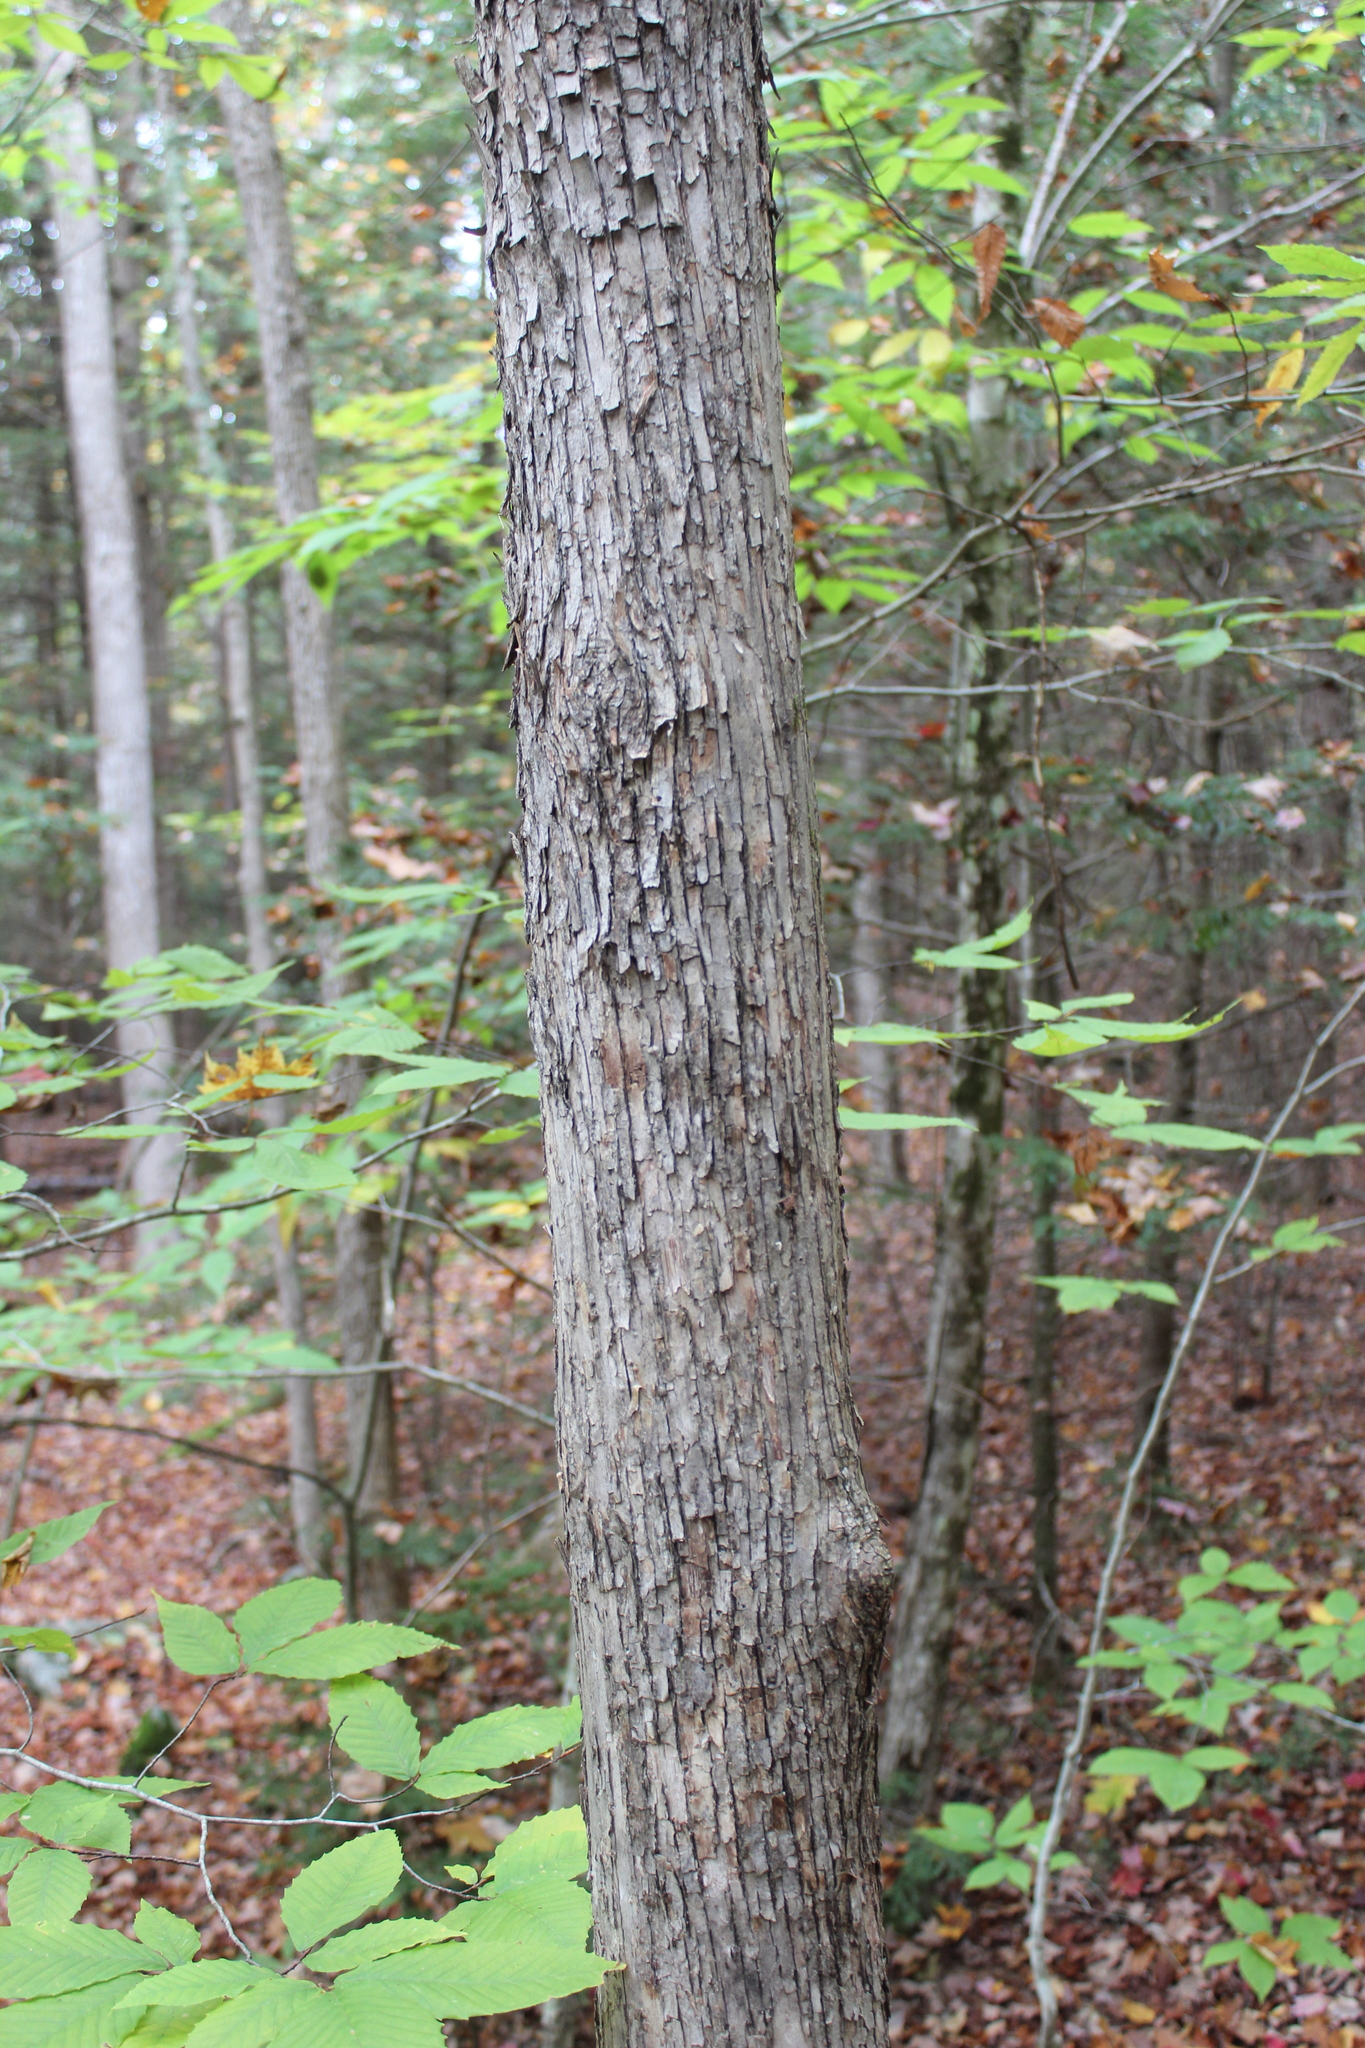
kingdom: Plantae
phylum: Tracheophyta
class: Magnoliopsida
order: Fagales
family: Betulaceae
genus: Ostrya
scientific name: Ostrya virginiana
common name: Ironwood
